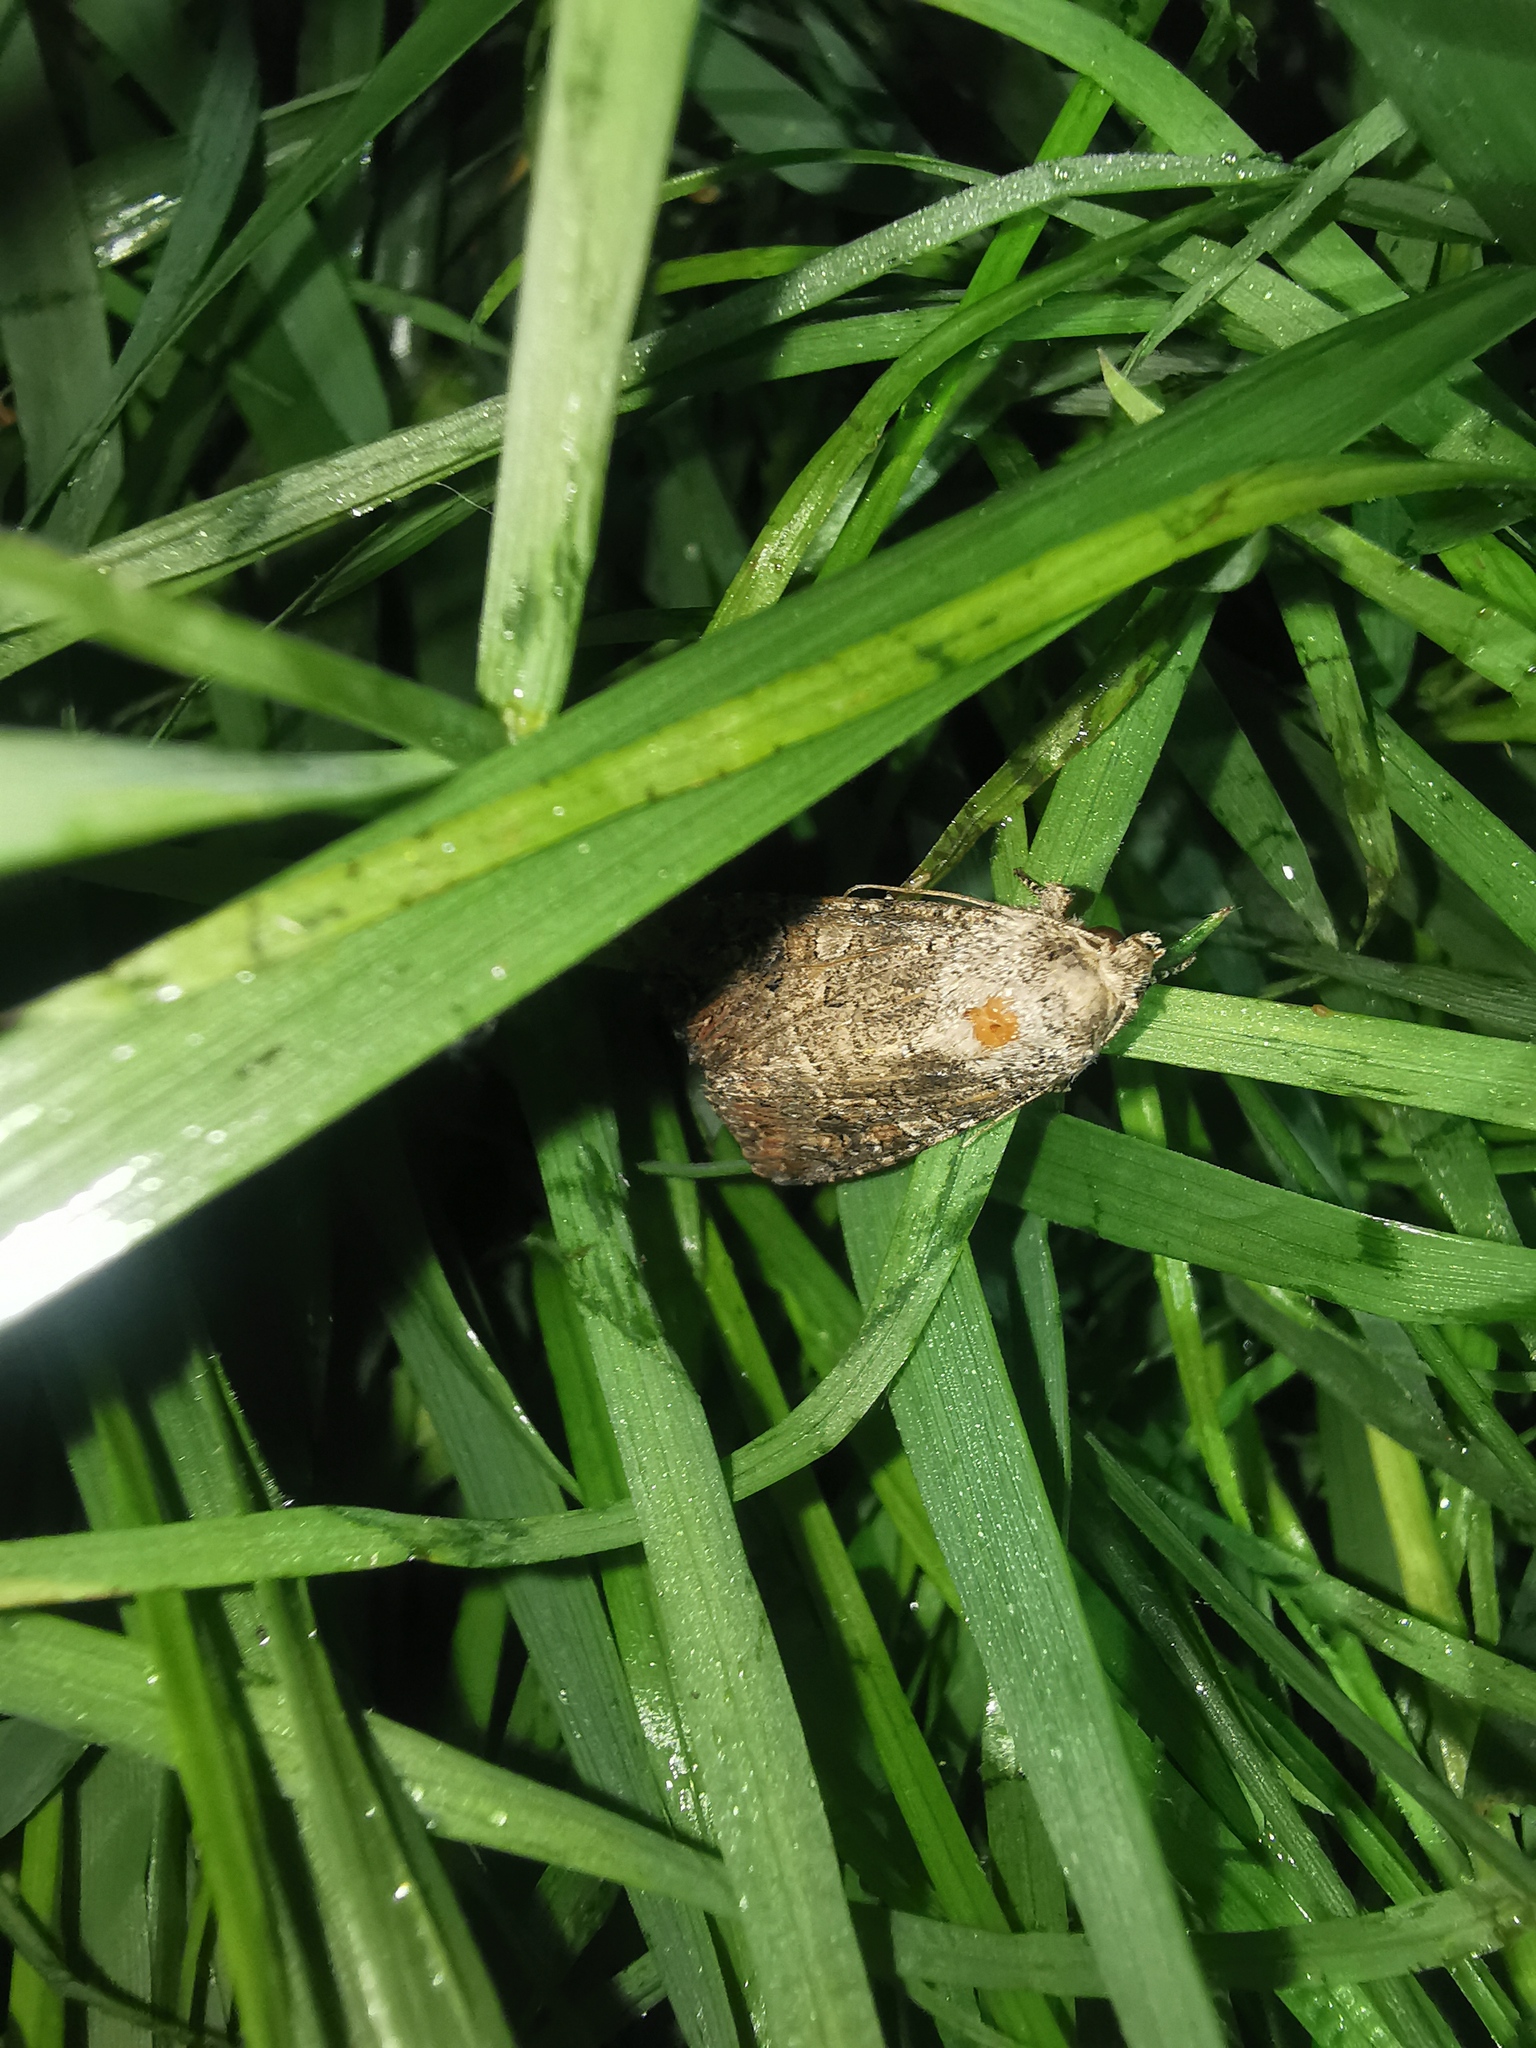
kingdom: Animalia
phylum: Arthropoda
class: Insecta
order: Lepidoptera
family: Noctuidae
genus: Anarta
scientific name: Anarta trifolii
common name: Clover cutworm moth
